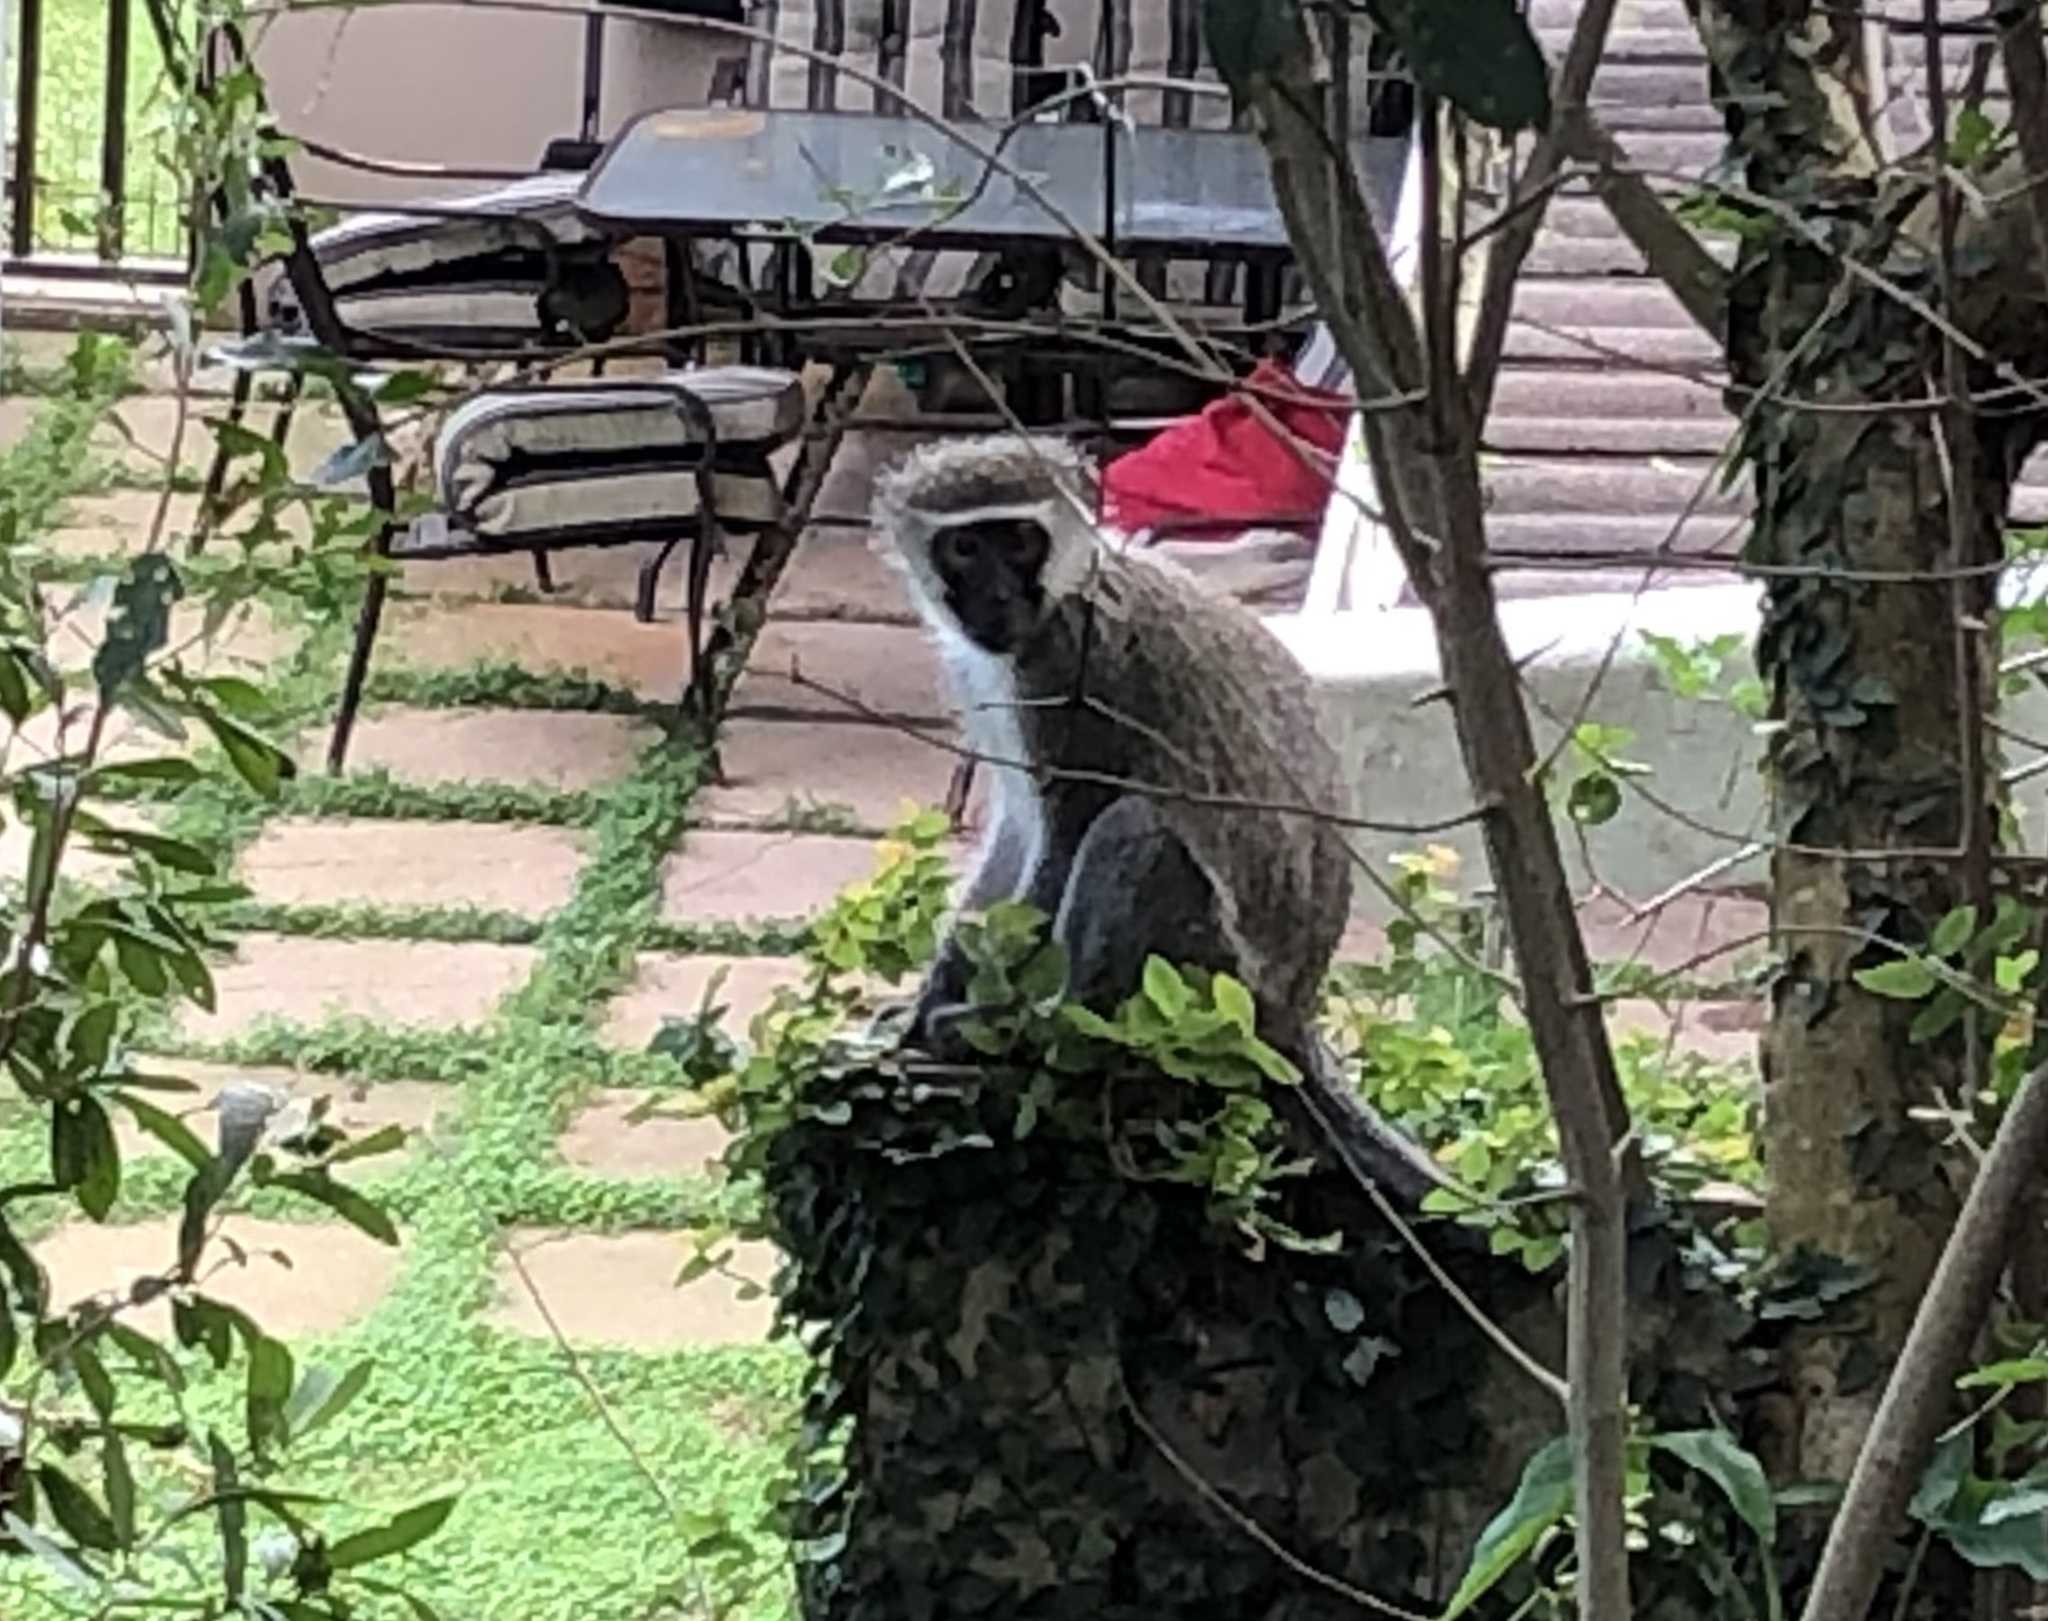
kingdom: Animalia
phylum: Chordata
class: Mammalia
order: Primates
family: Cercopithecidae
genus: Chlorocebus
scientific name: Chlorocebus pygerythrus
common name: Vervet monkey
